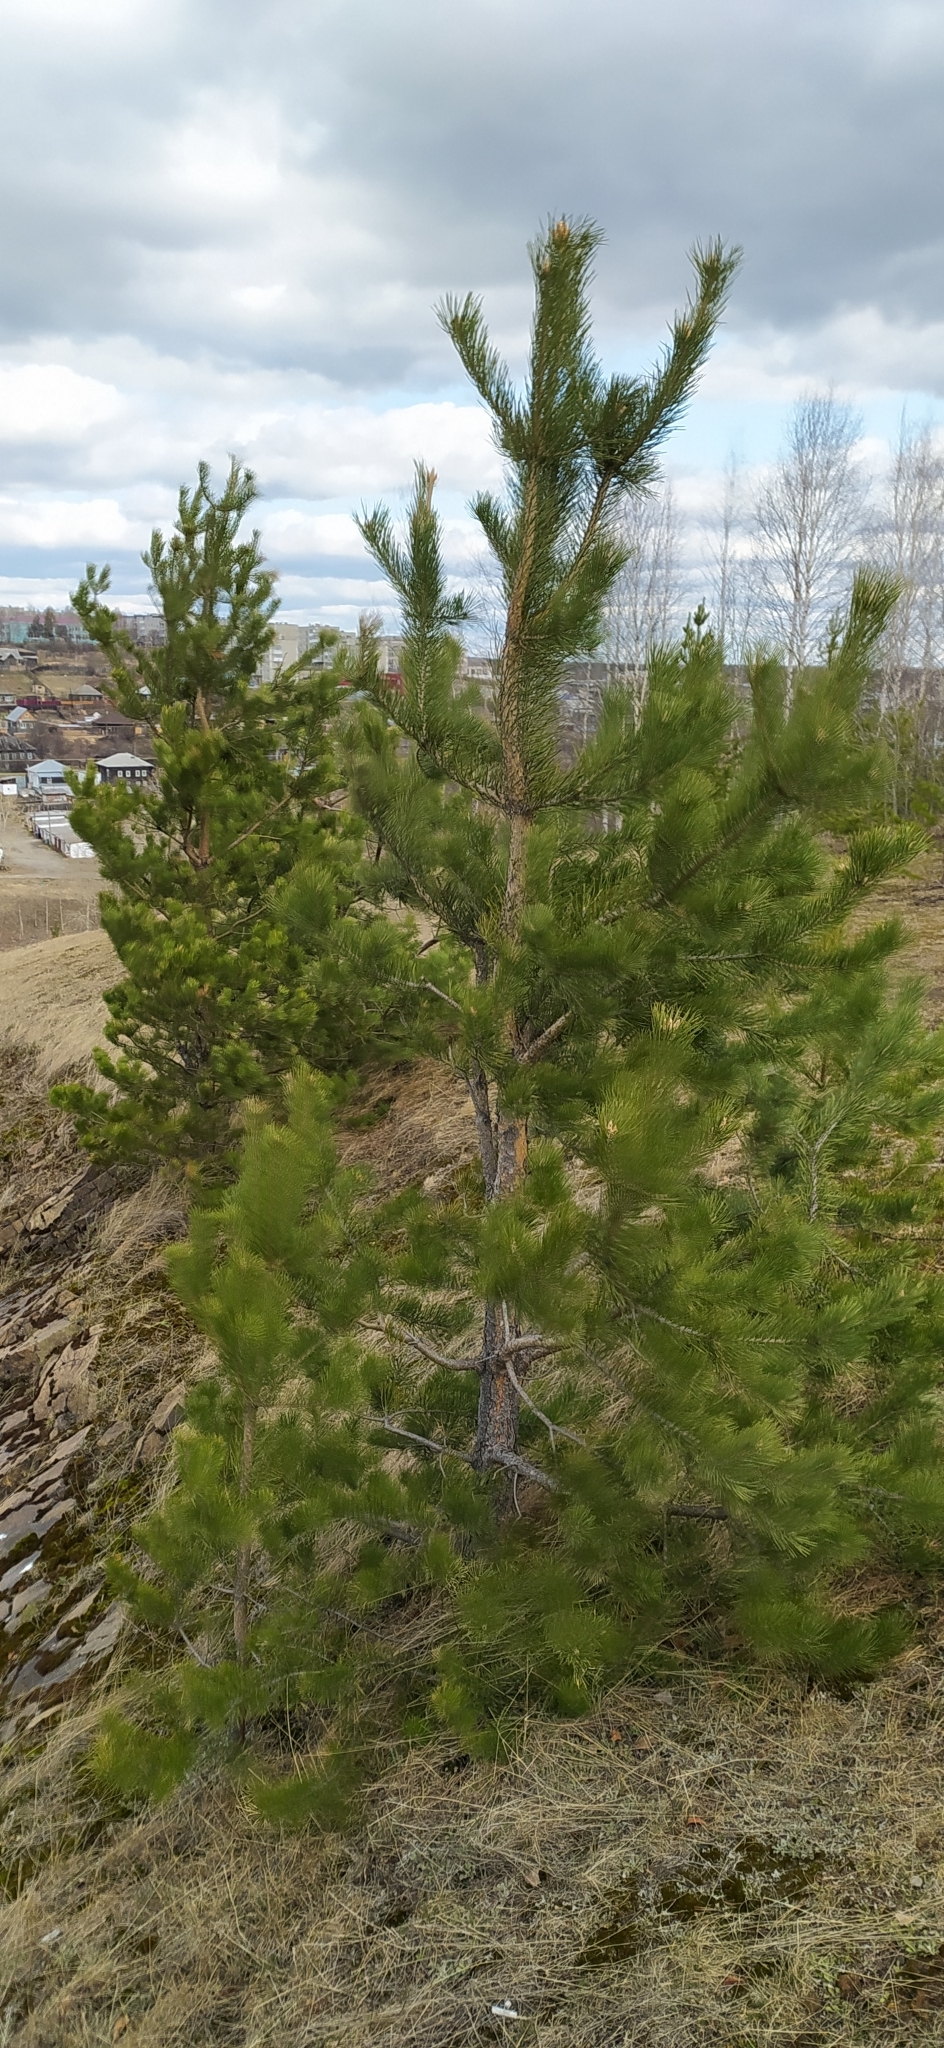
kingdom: Plantae
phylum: Tracheophyta
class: Pinopsida
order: Pinales
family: Pinaceae
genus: Pinus
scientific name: Pinus sylvestris
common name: Scots pine
